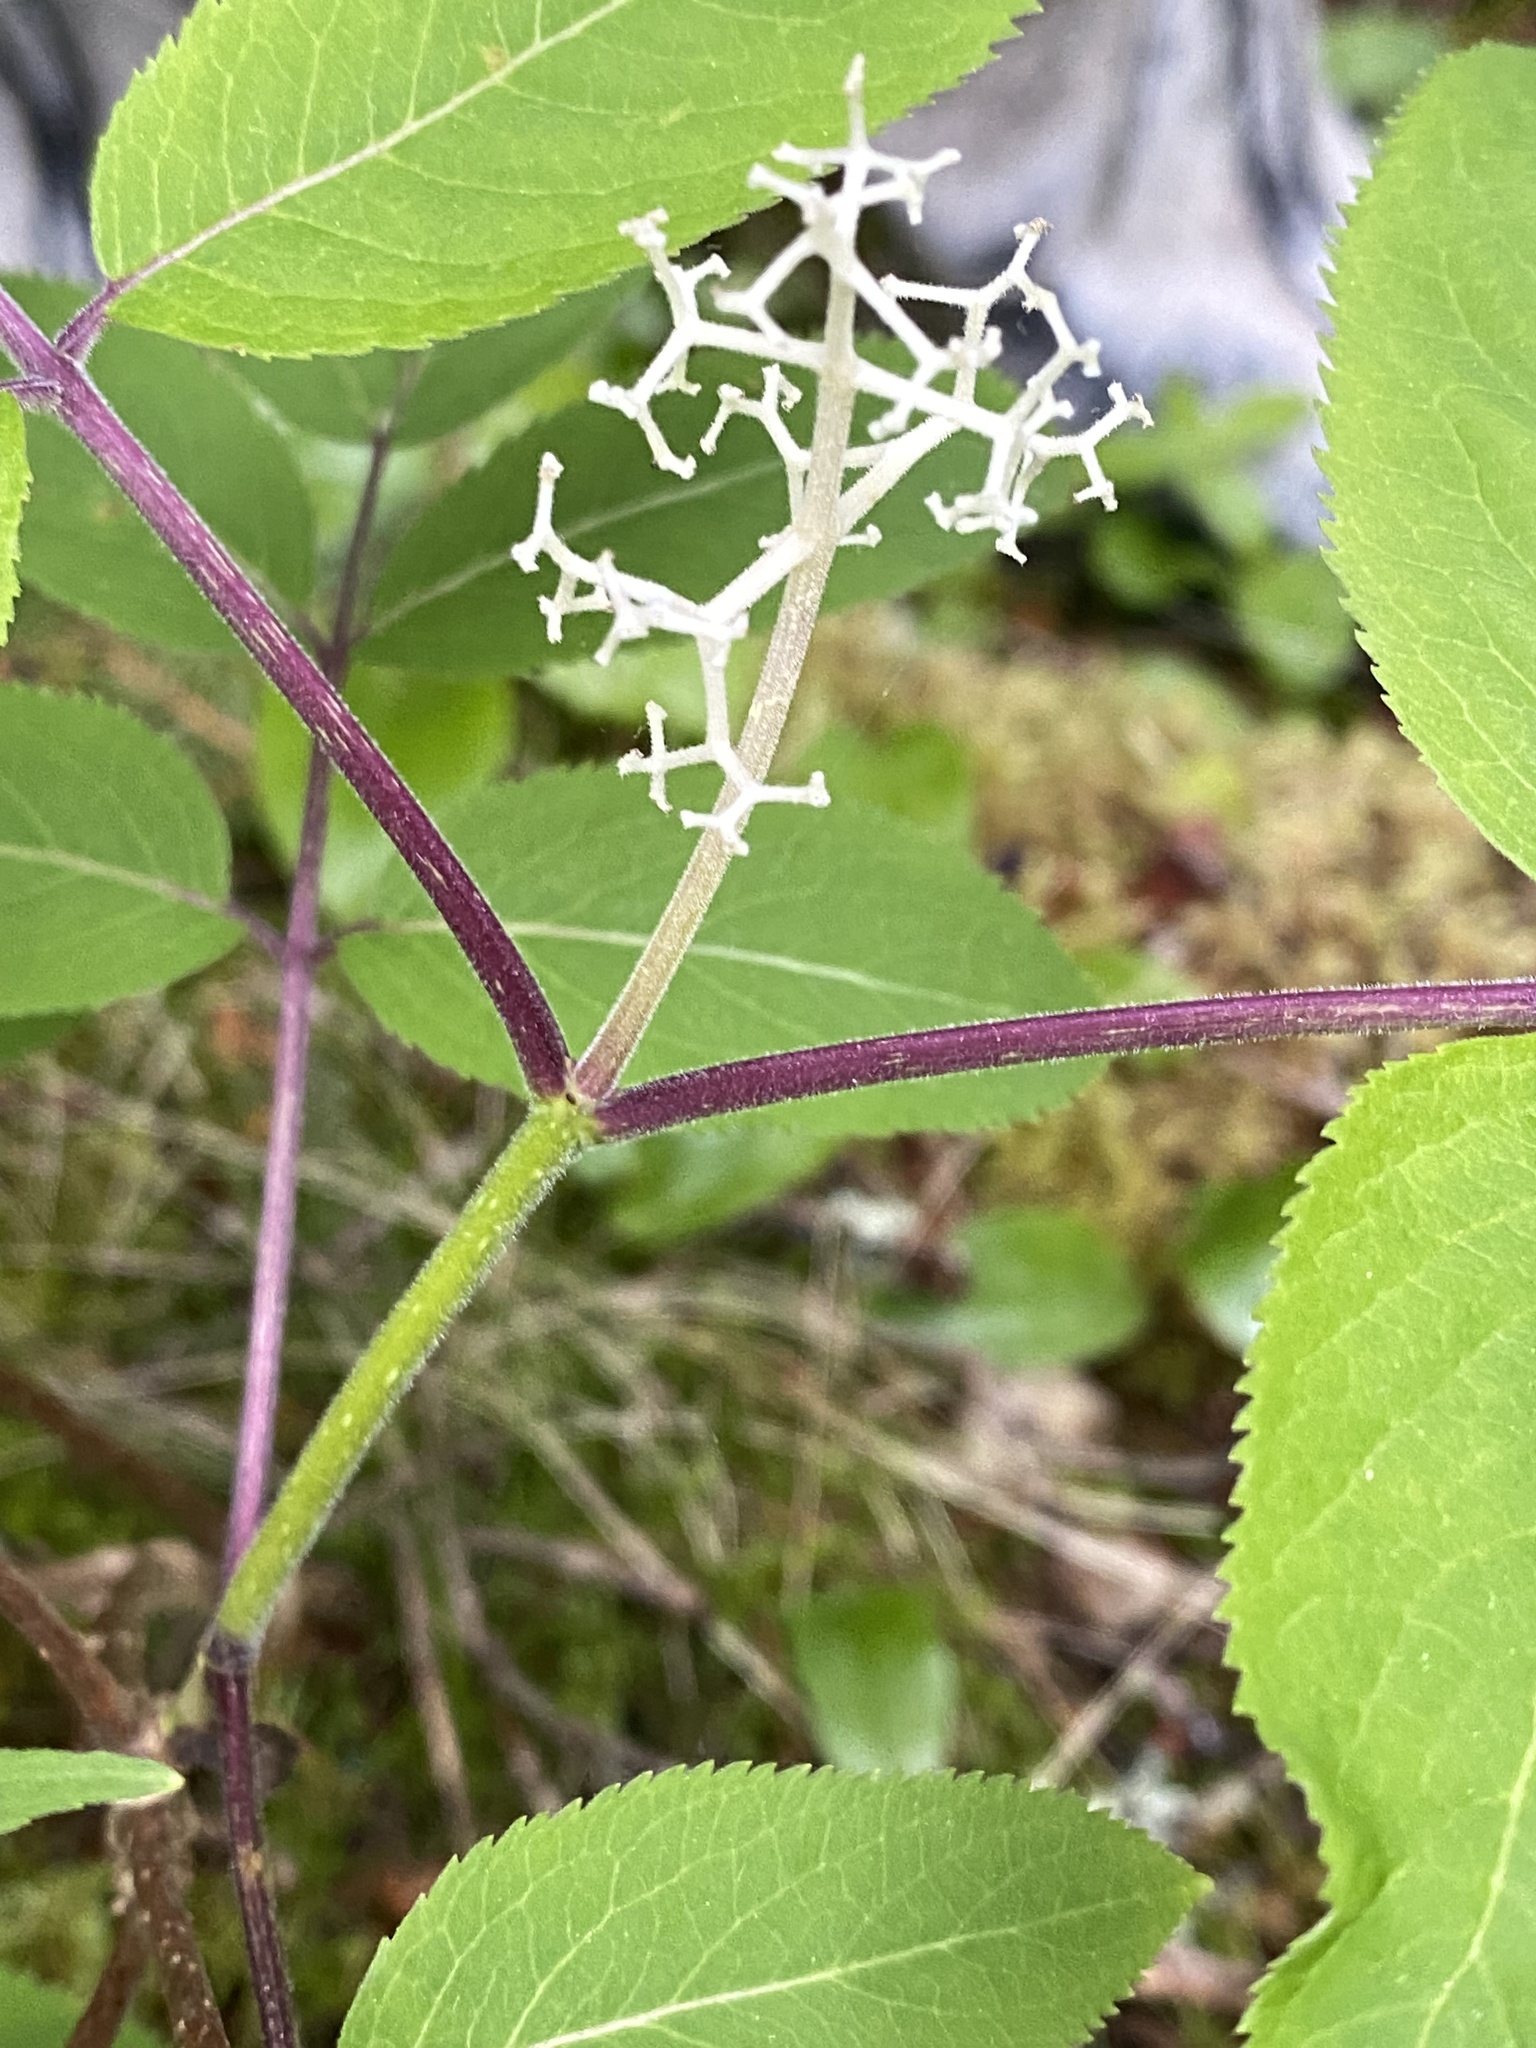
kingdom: Plantae
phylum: Tracheophyta
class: Magnoliopsida
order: Dipsacales
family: Viburnaceae
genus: Sambucus
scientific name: Sambucus racemosa
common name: Red-berried elder
